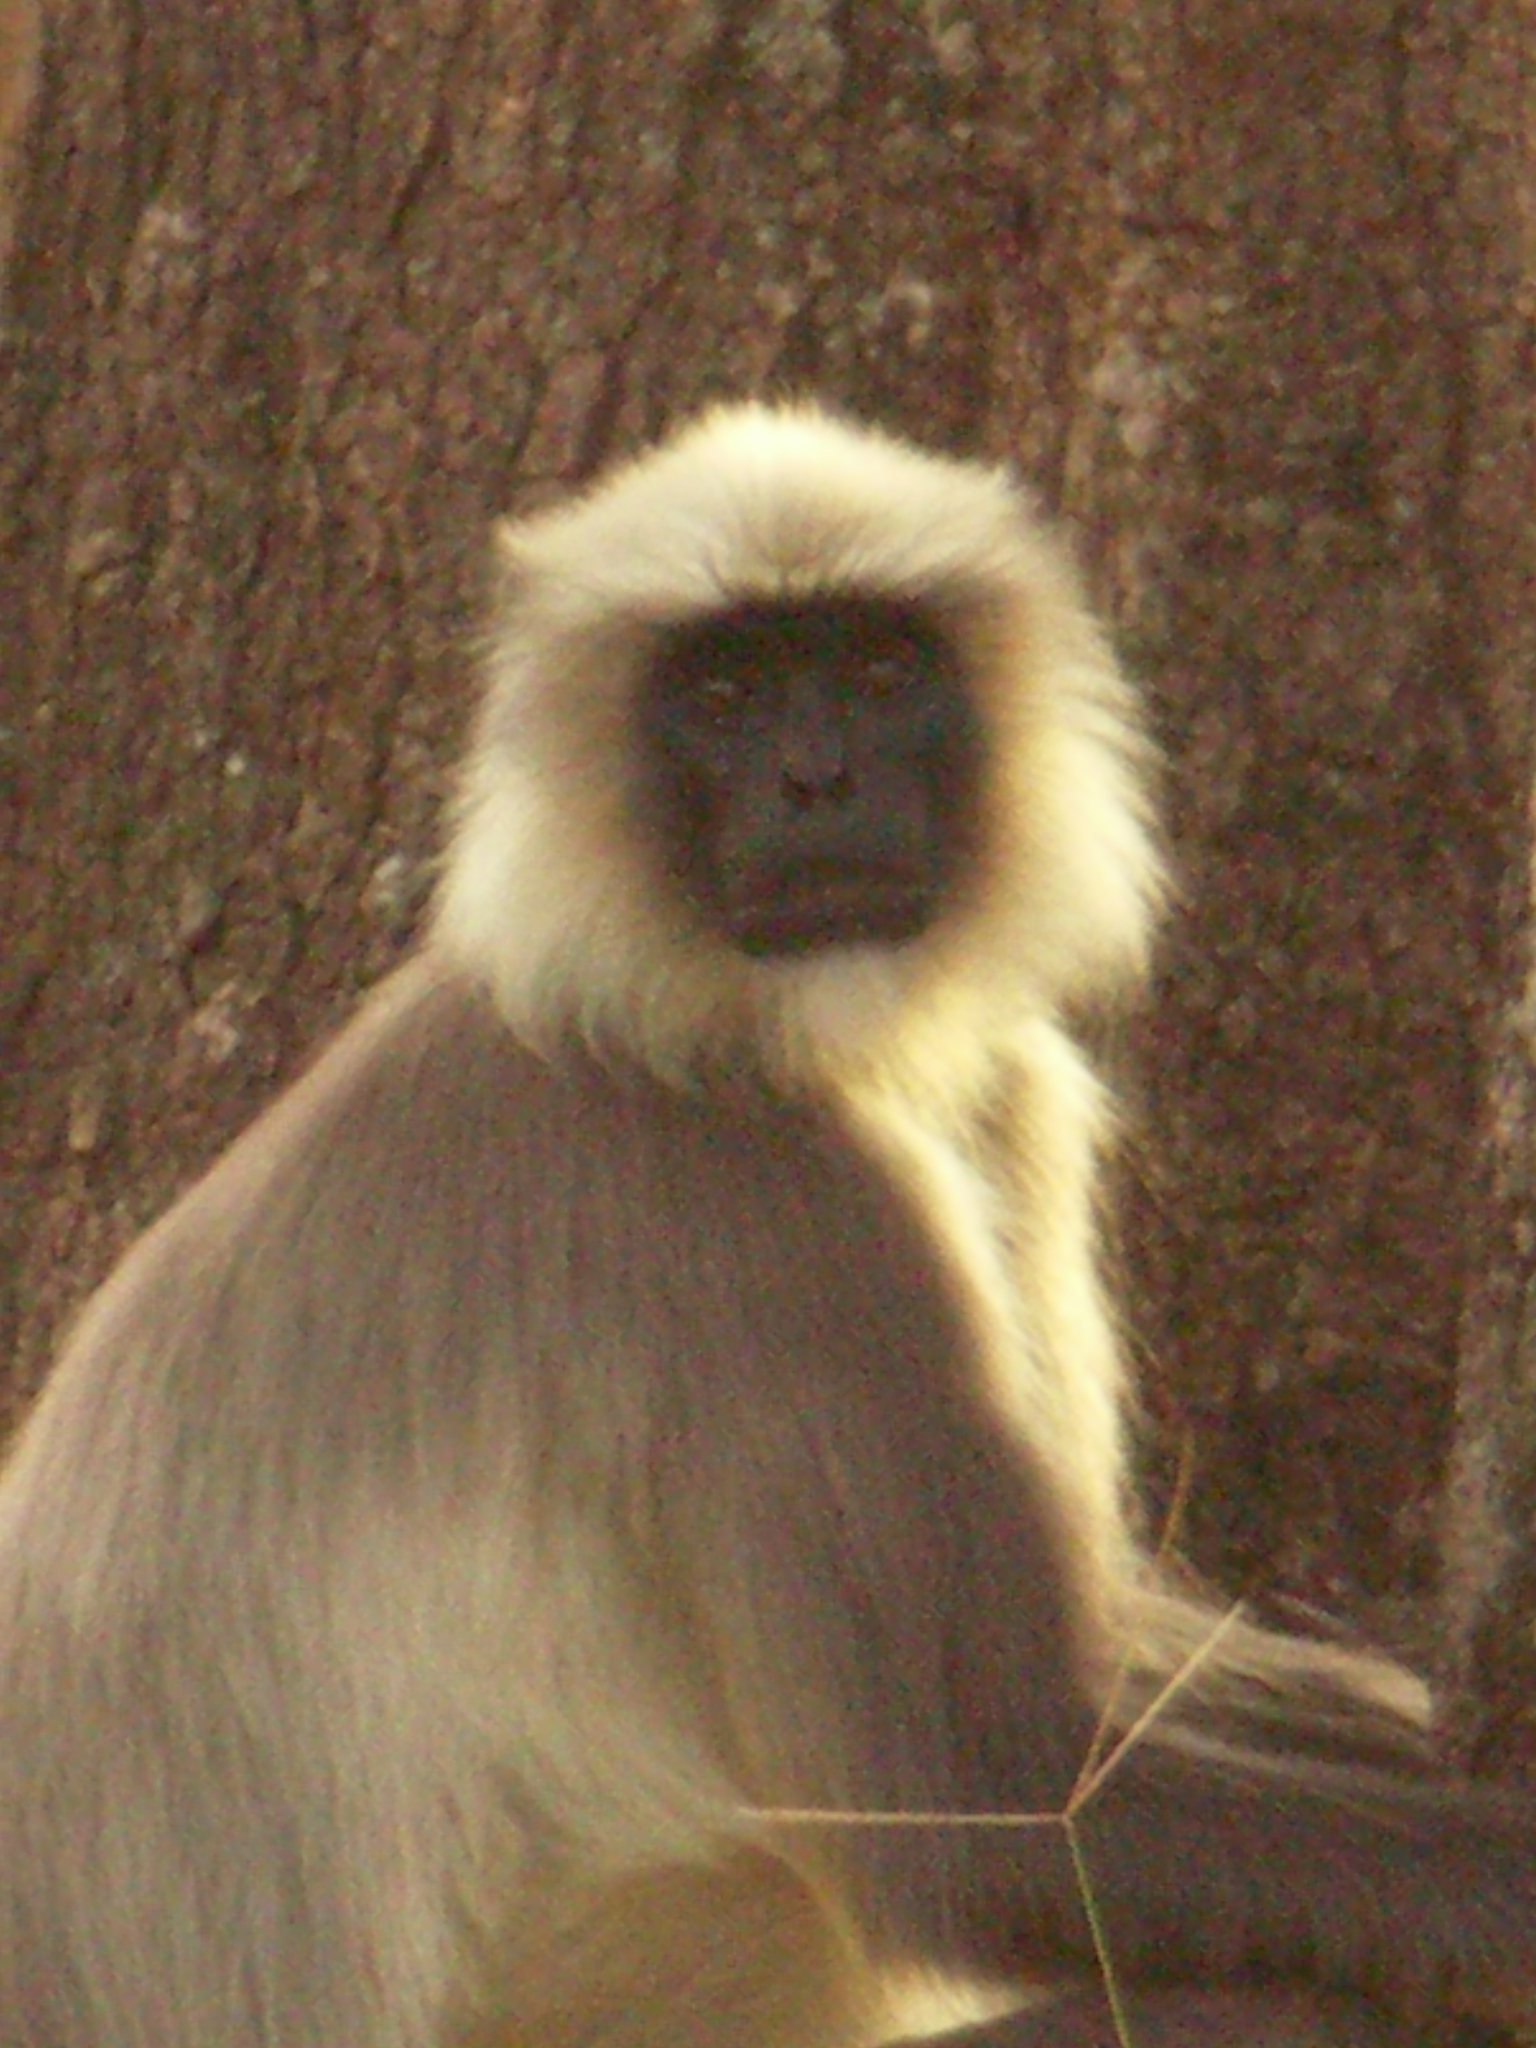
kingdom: Animalia
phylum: Chordata
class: Mammalia
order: Primates
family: Cercopithecidae
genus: Semnopithecus
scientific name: Semnopithecus hypoleucos
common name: Black-footed gray langur
